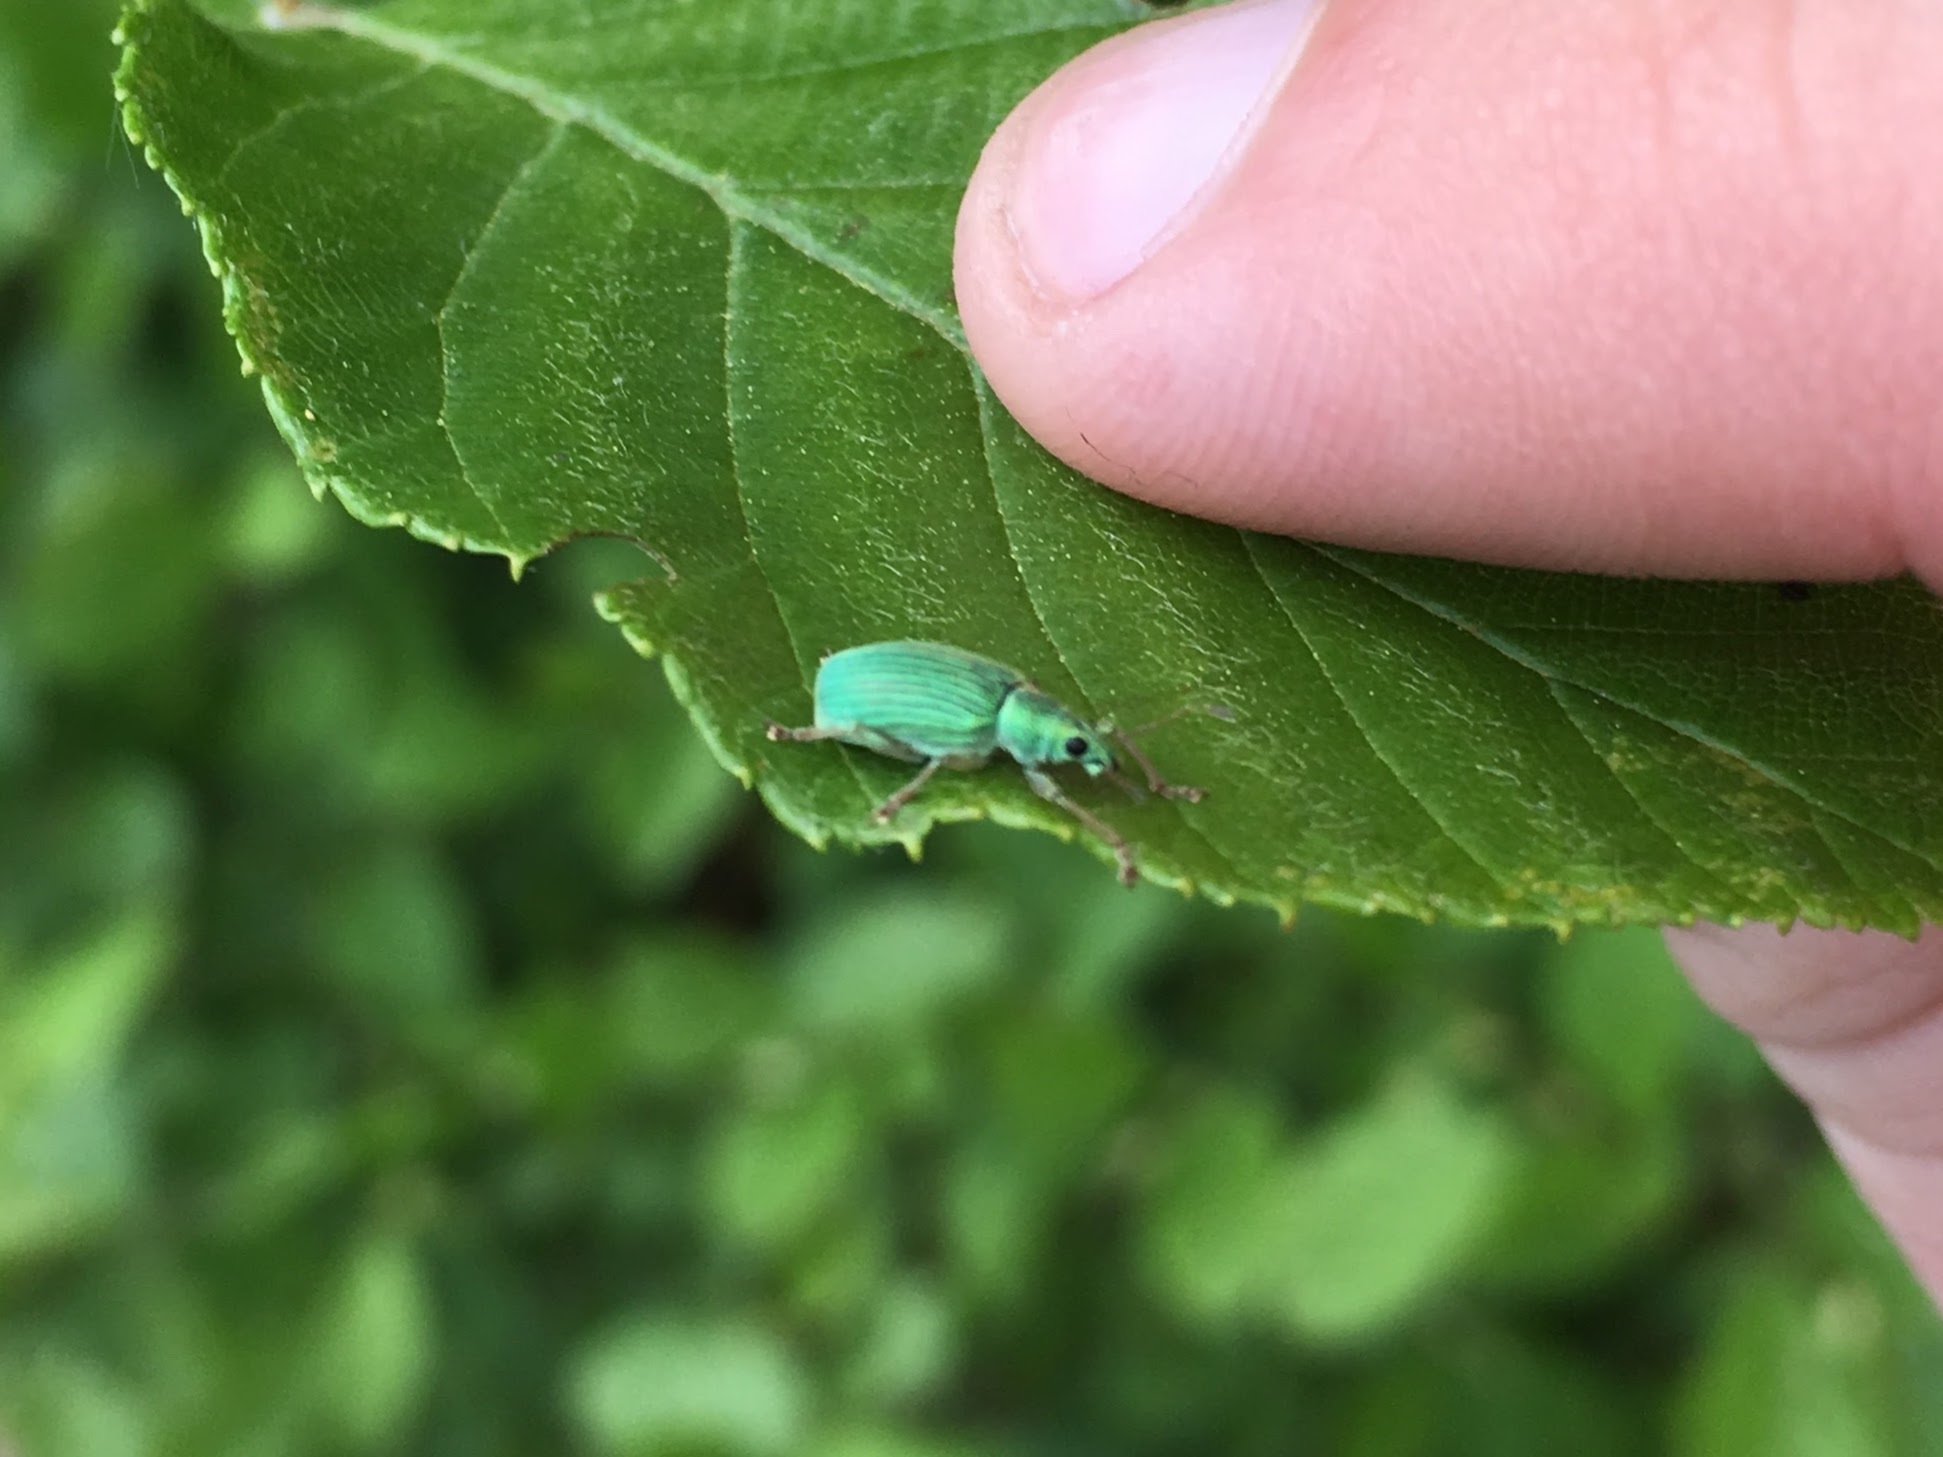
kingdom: Animalia
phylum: Arthropoda
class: Insecta
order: Coleoptera
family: Curculionidae
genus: Polydrusus
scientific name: Polydrusus formosus
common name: Weevil
